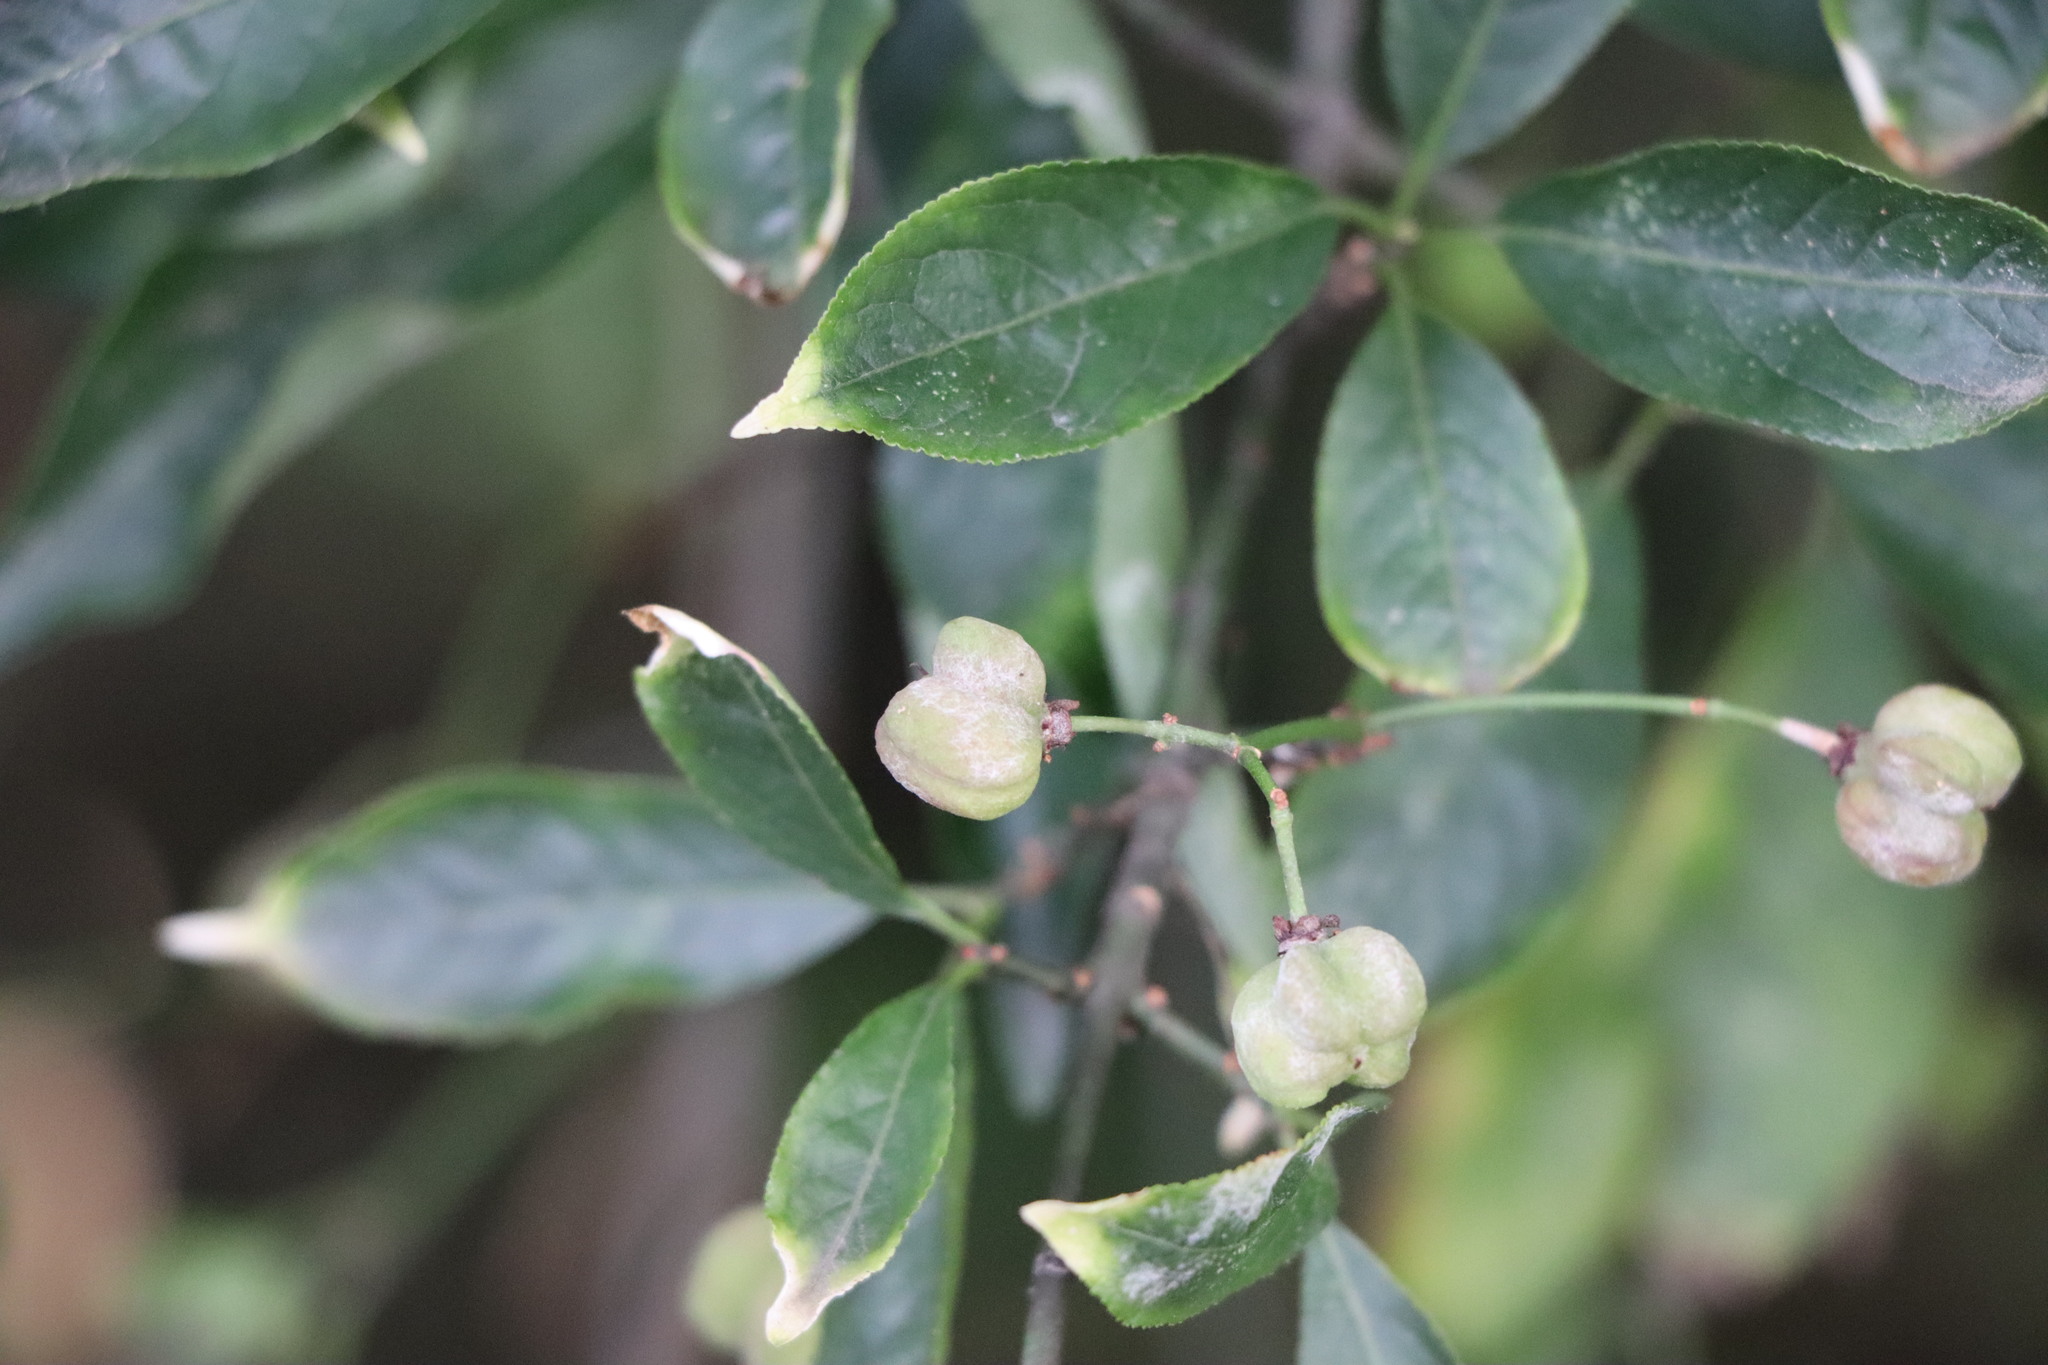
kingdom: Plantae
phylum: Tracheophyta
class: Magnoliopsida
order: Celastrales
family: Celastraceae
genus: Euonymus
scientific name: Euonymus europaeus
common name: Spindle
